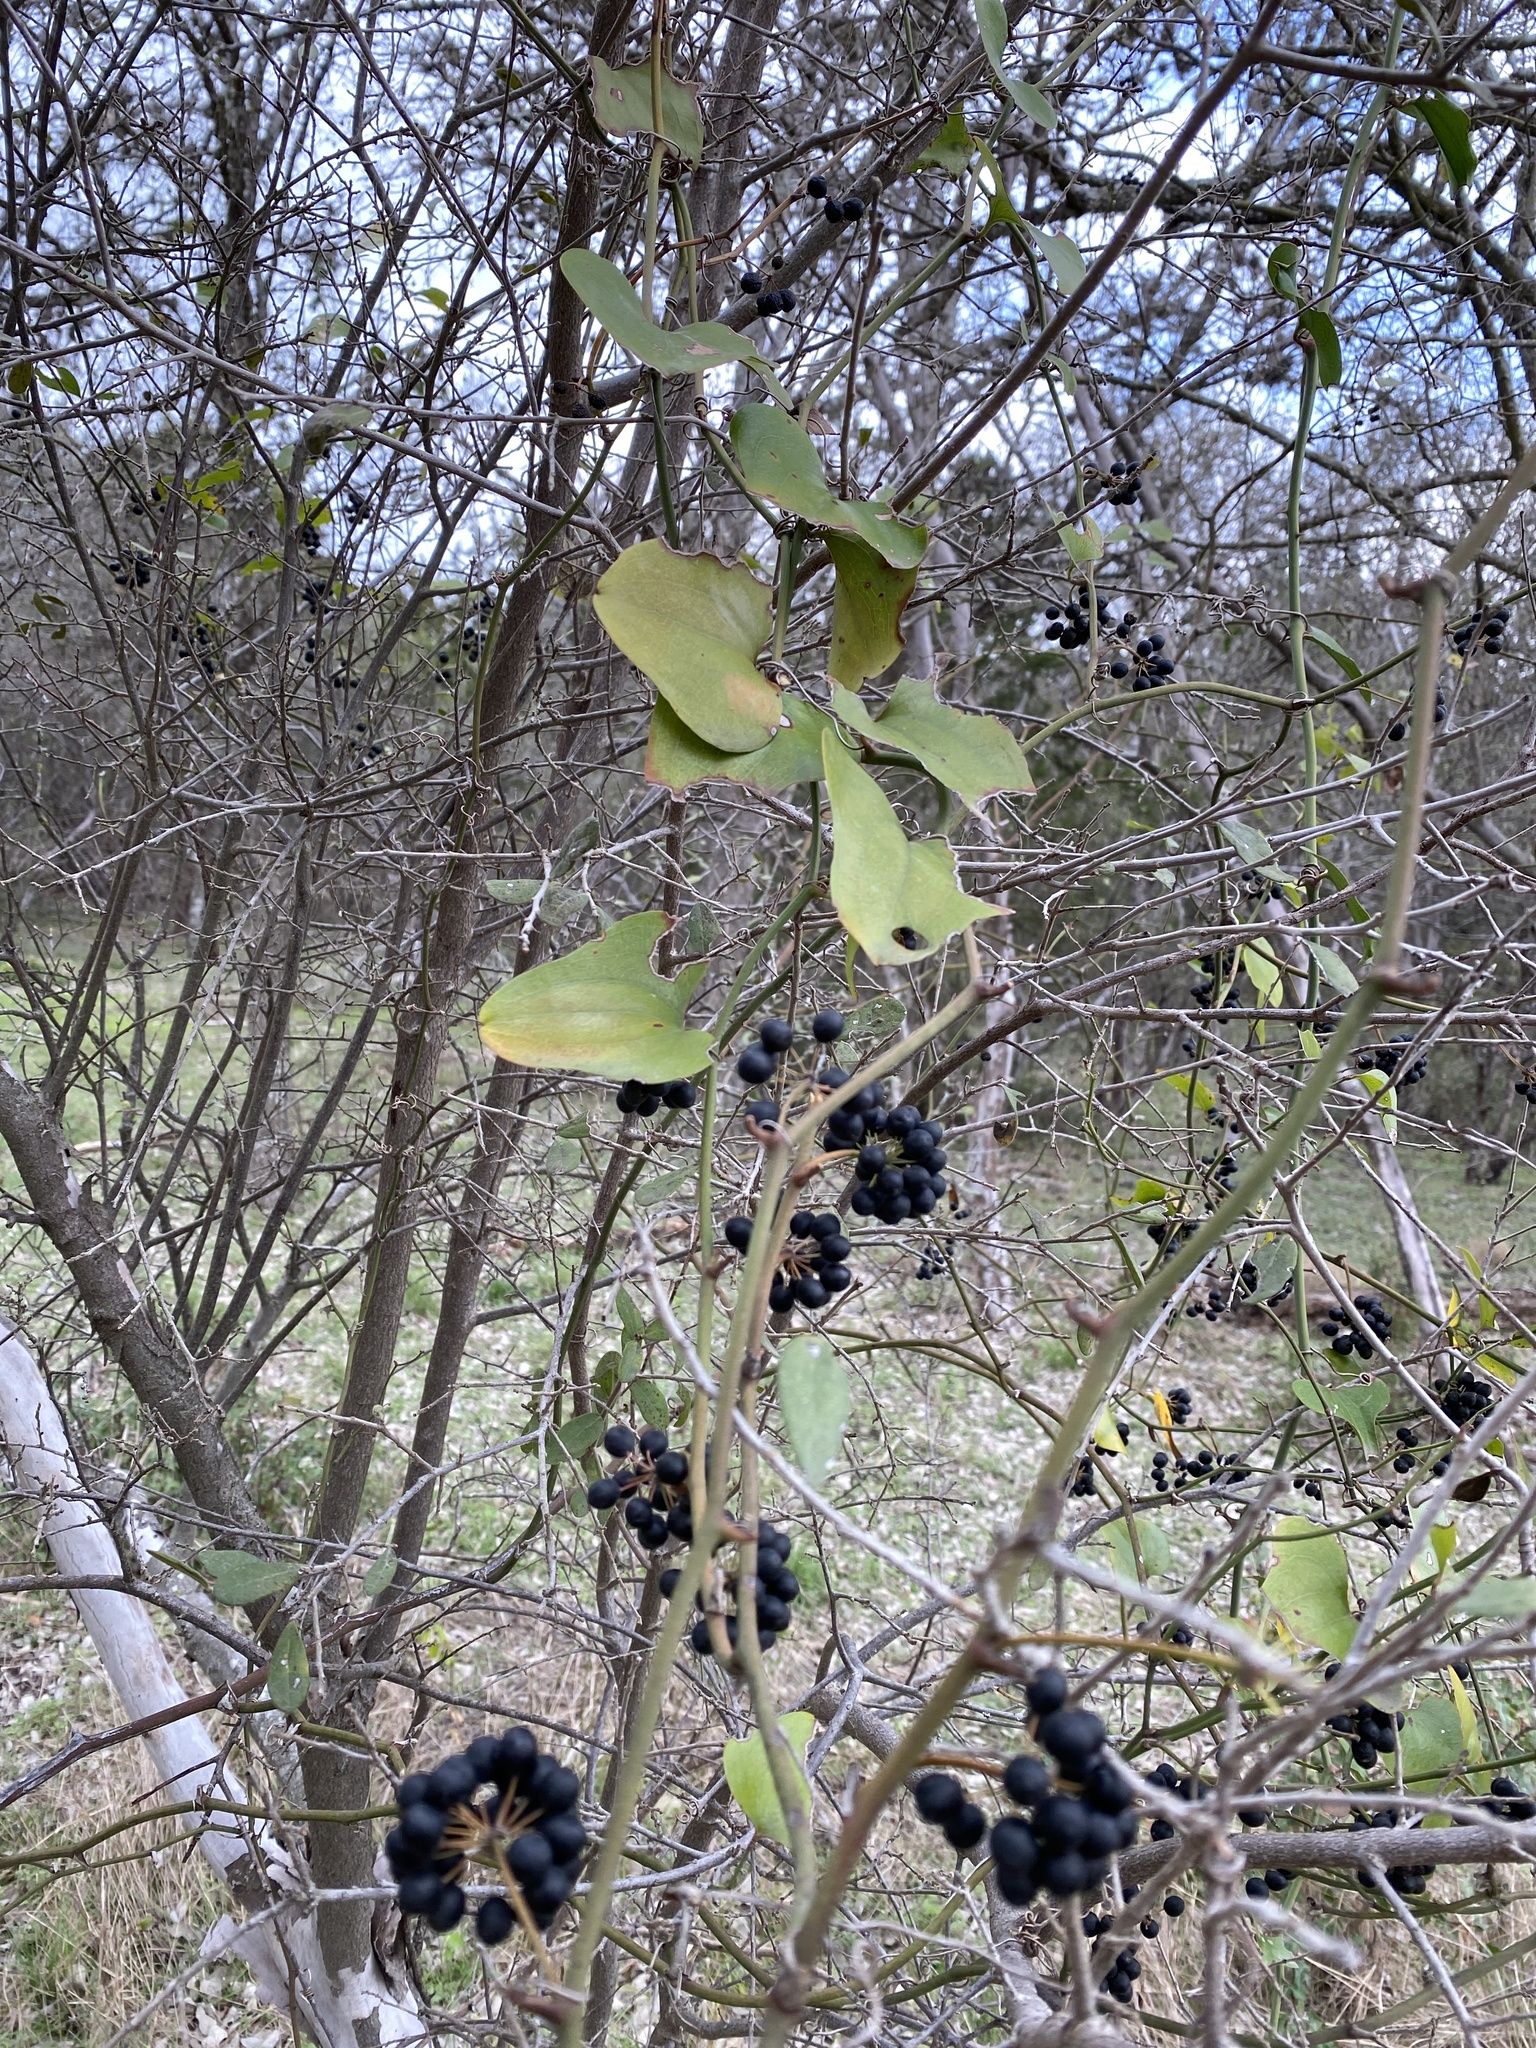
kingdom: Plantae
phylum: Tracheophyta
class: Liliopsida
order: Liliales
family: Smilacaceae
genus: Smilax
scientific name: Smilax bona-nox
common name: Catbrier
